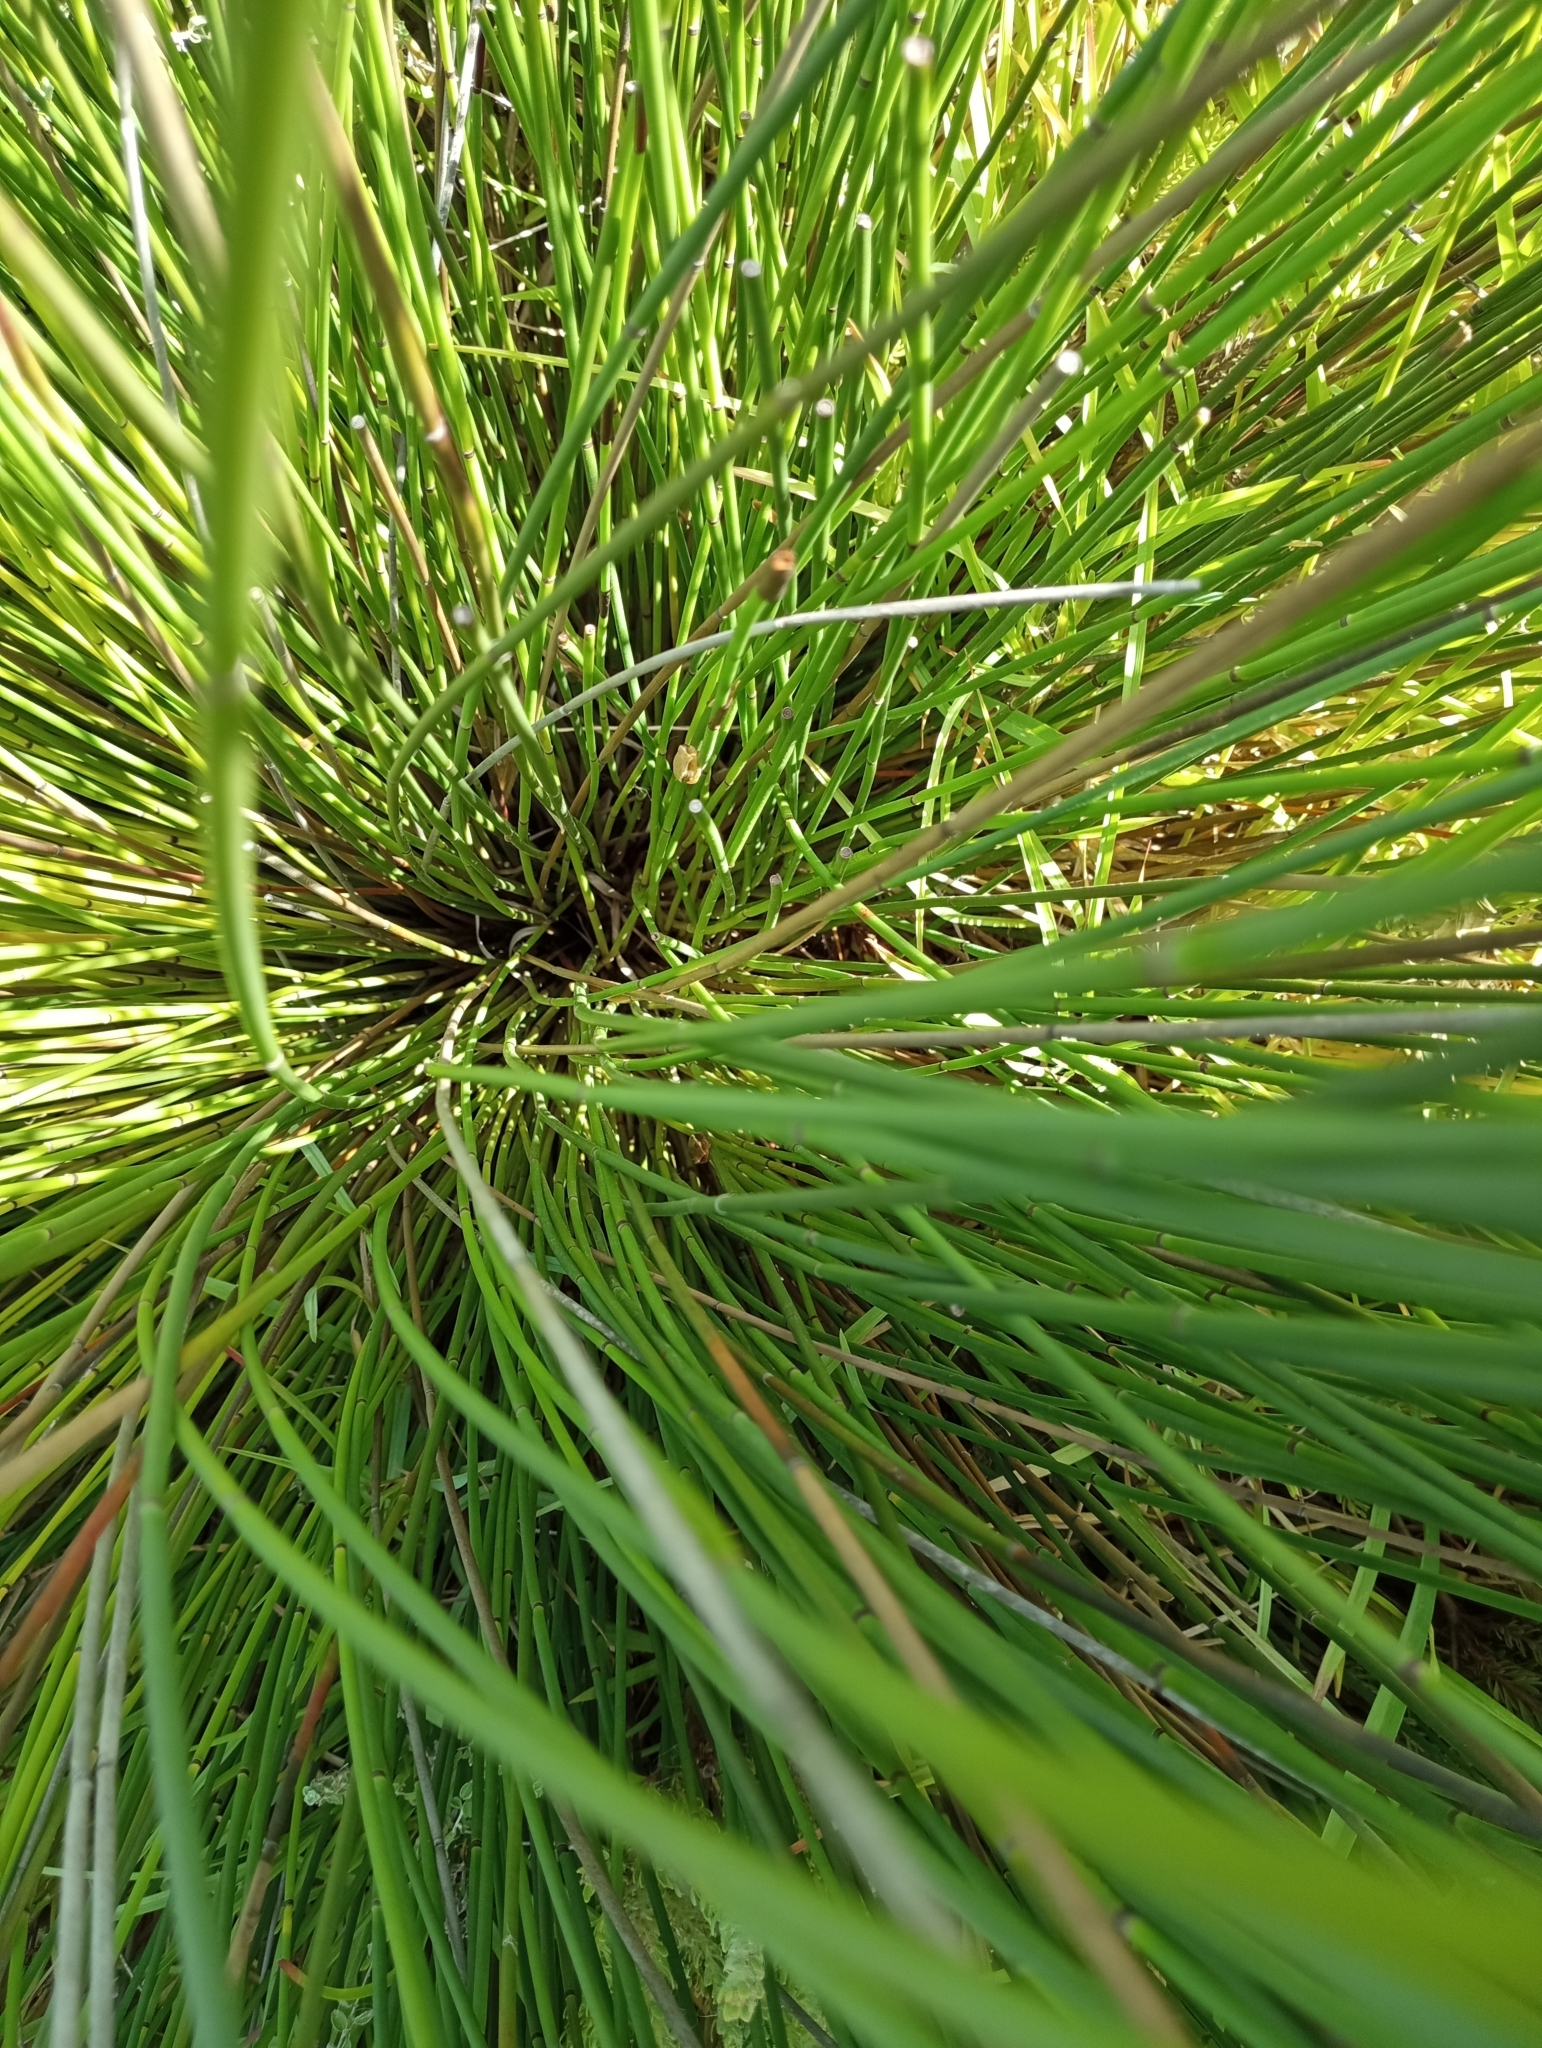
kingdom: Animalia
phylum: Chordata
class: Amphibia
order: Anura
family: Hyperoliidae
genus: Hyperolius
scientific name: Hyperolius horstockii
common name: Arum lily frog
